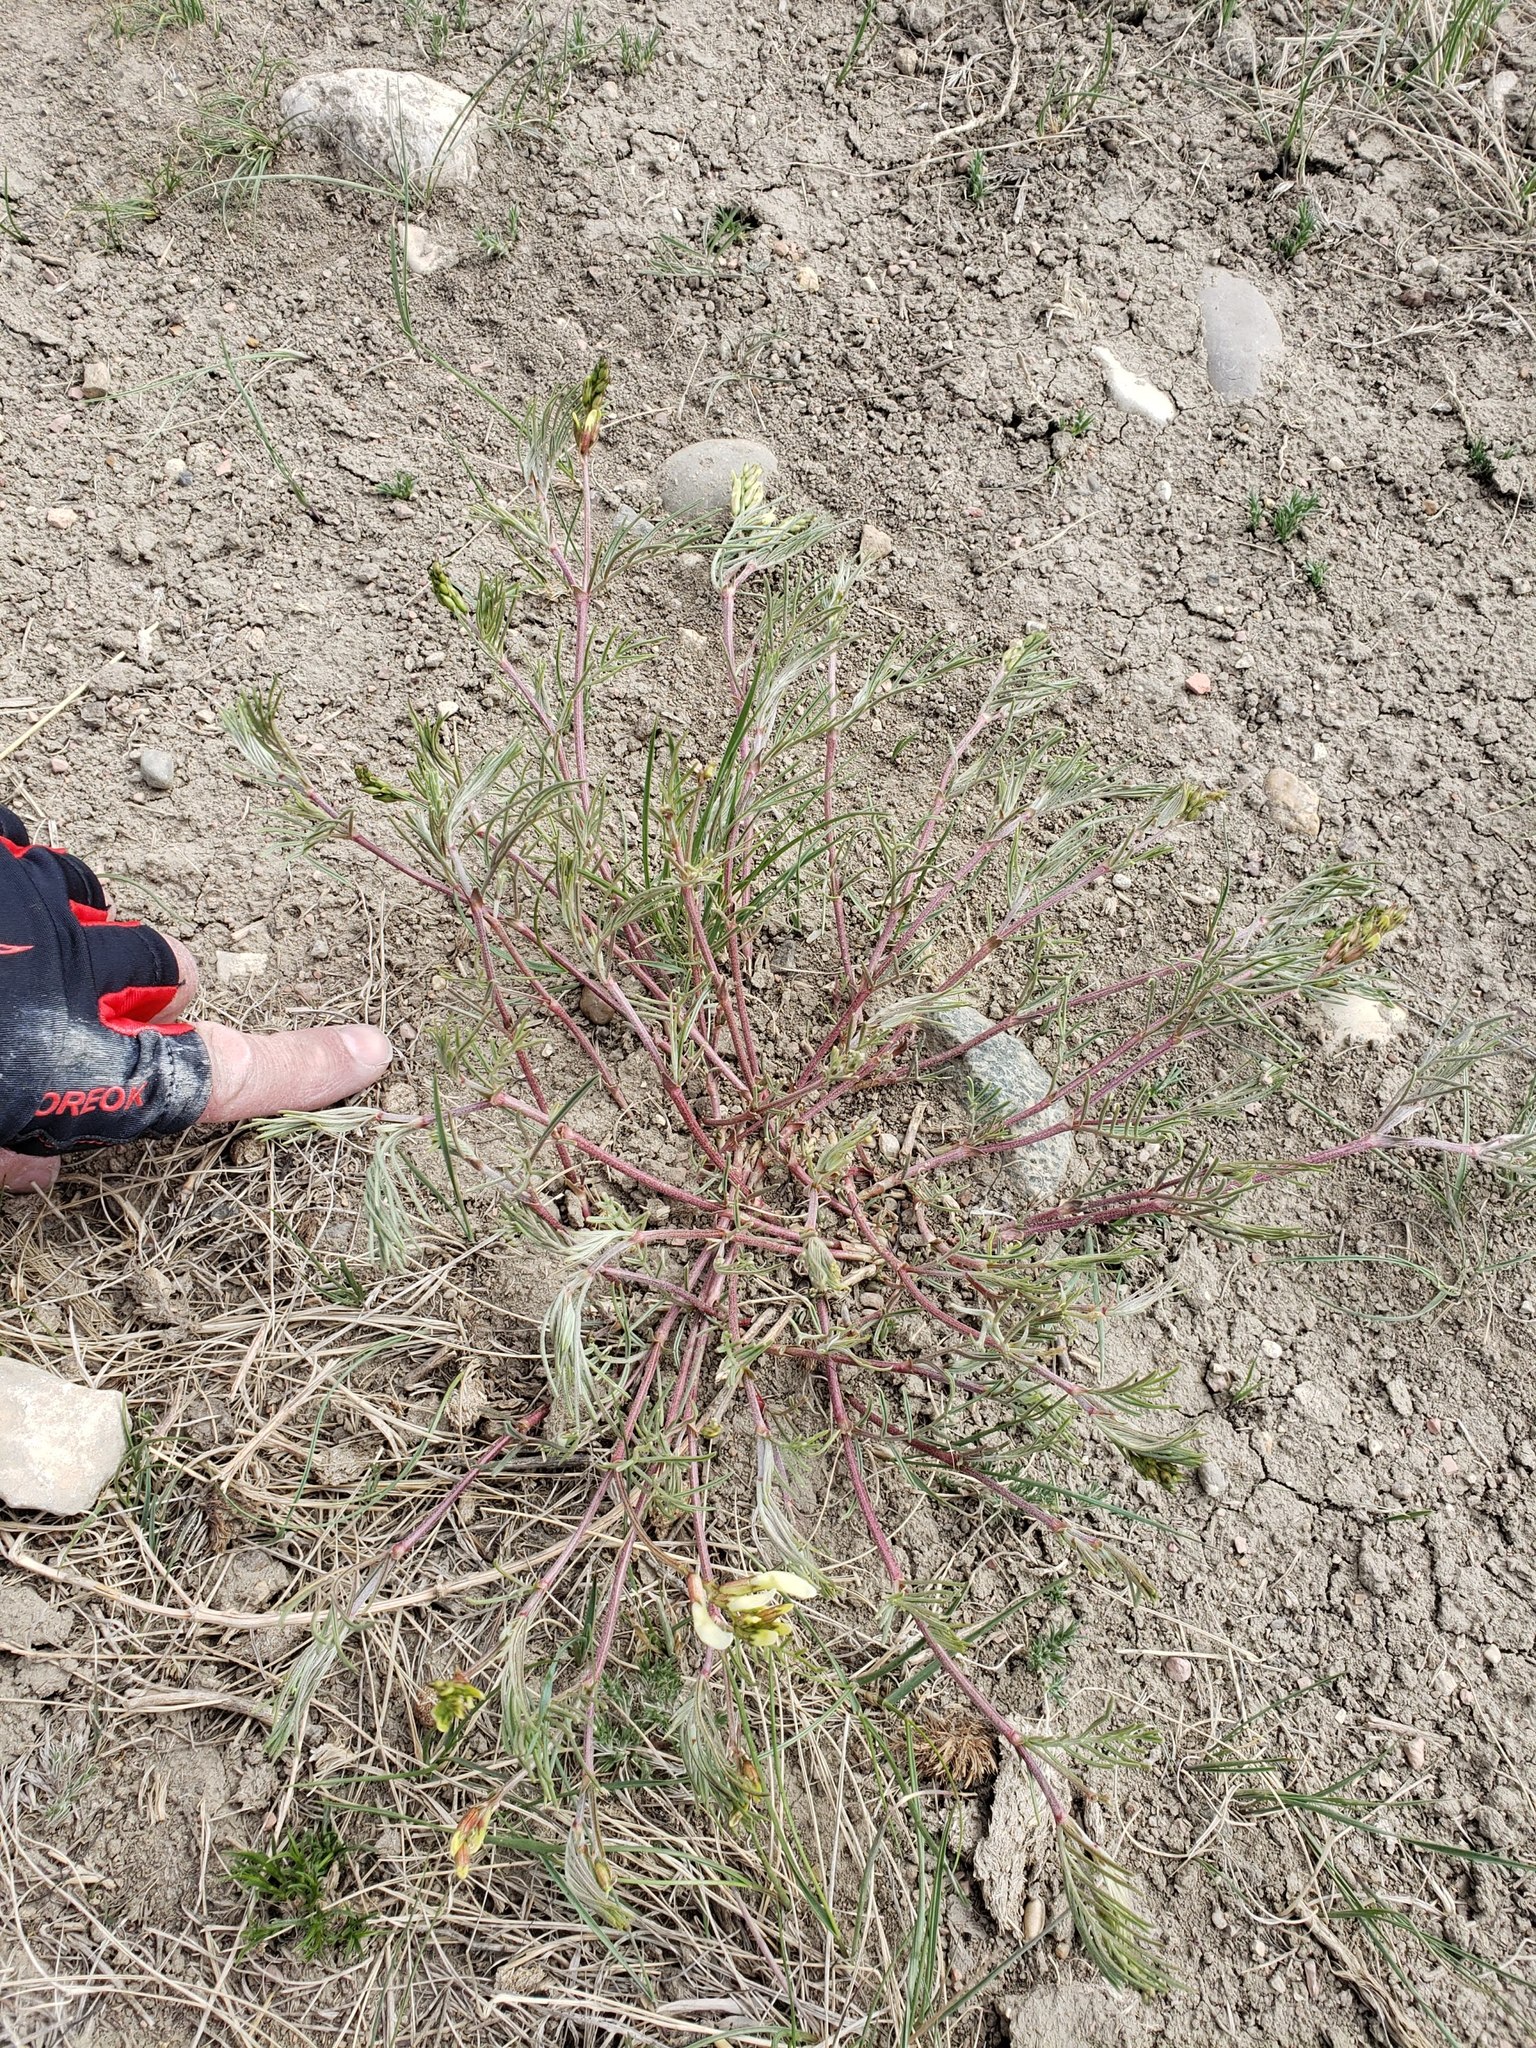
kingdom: Plantae
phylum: Tracheophyta
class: Magnoliopsida
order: Fabales
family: Fabaceae
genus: Astragalus
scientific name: Astragalus pectinatus
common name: Tine-leaf milk-vetch
